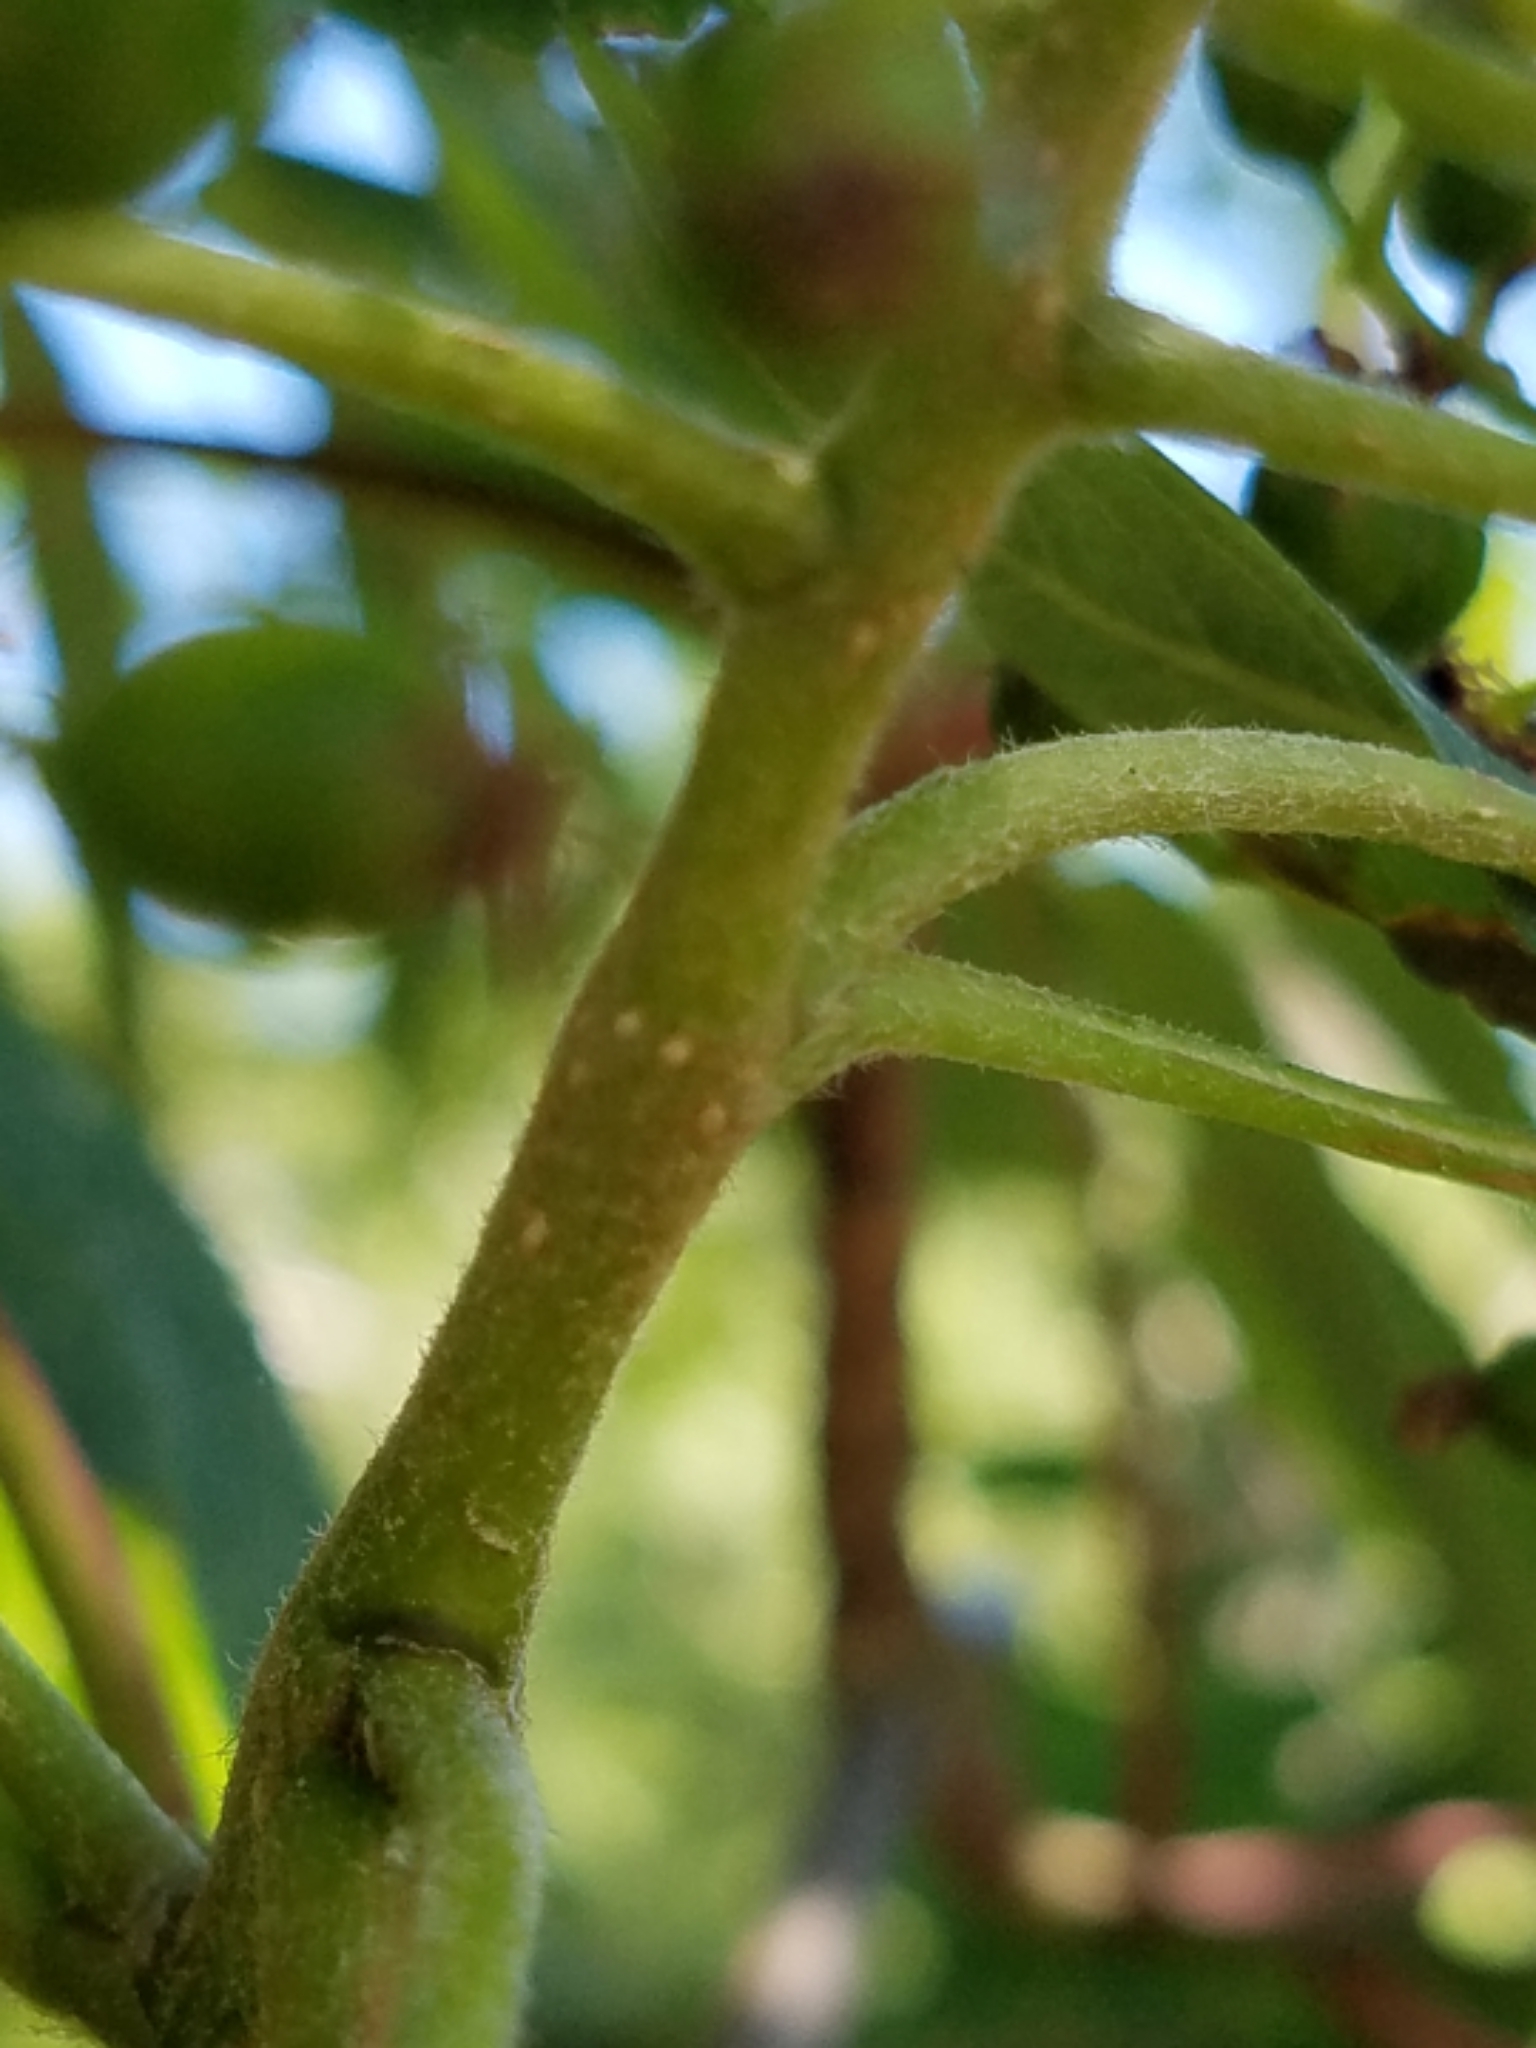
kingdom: Plantae
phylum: Tracheophyta
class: Magnoliopsida
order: Rosales
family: Rosaceae
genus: Sorbus
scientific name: Sorbus decora
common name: Northern mountain-ash
